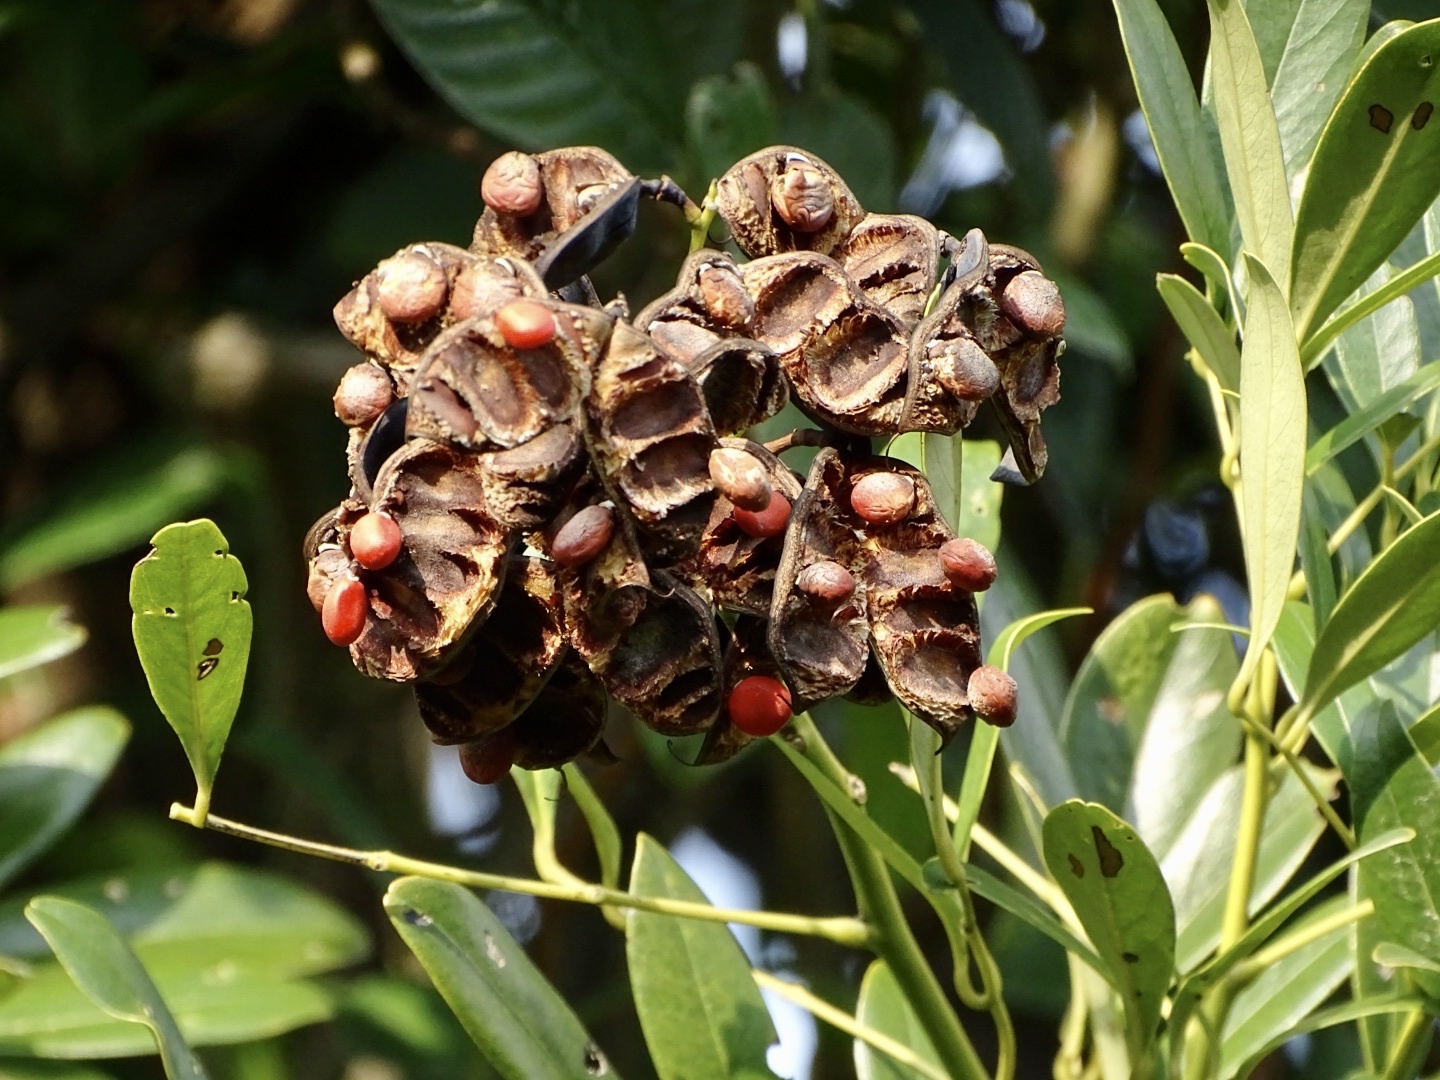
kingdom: Plantae
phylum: Tracheophyta
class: Magnoliopsida
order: Fabales
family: Fabaceae
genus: Ormosia
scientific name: Ormosia emarginata
